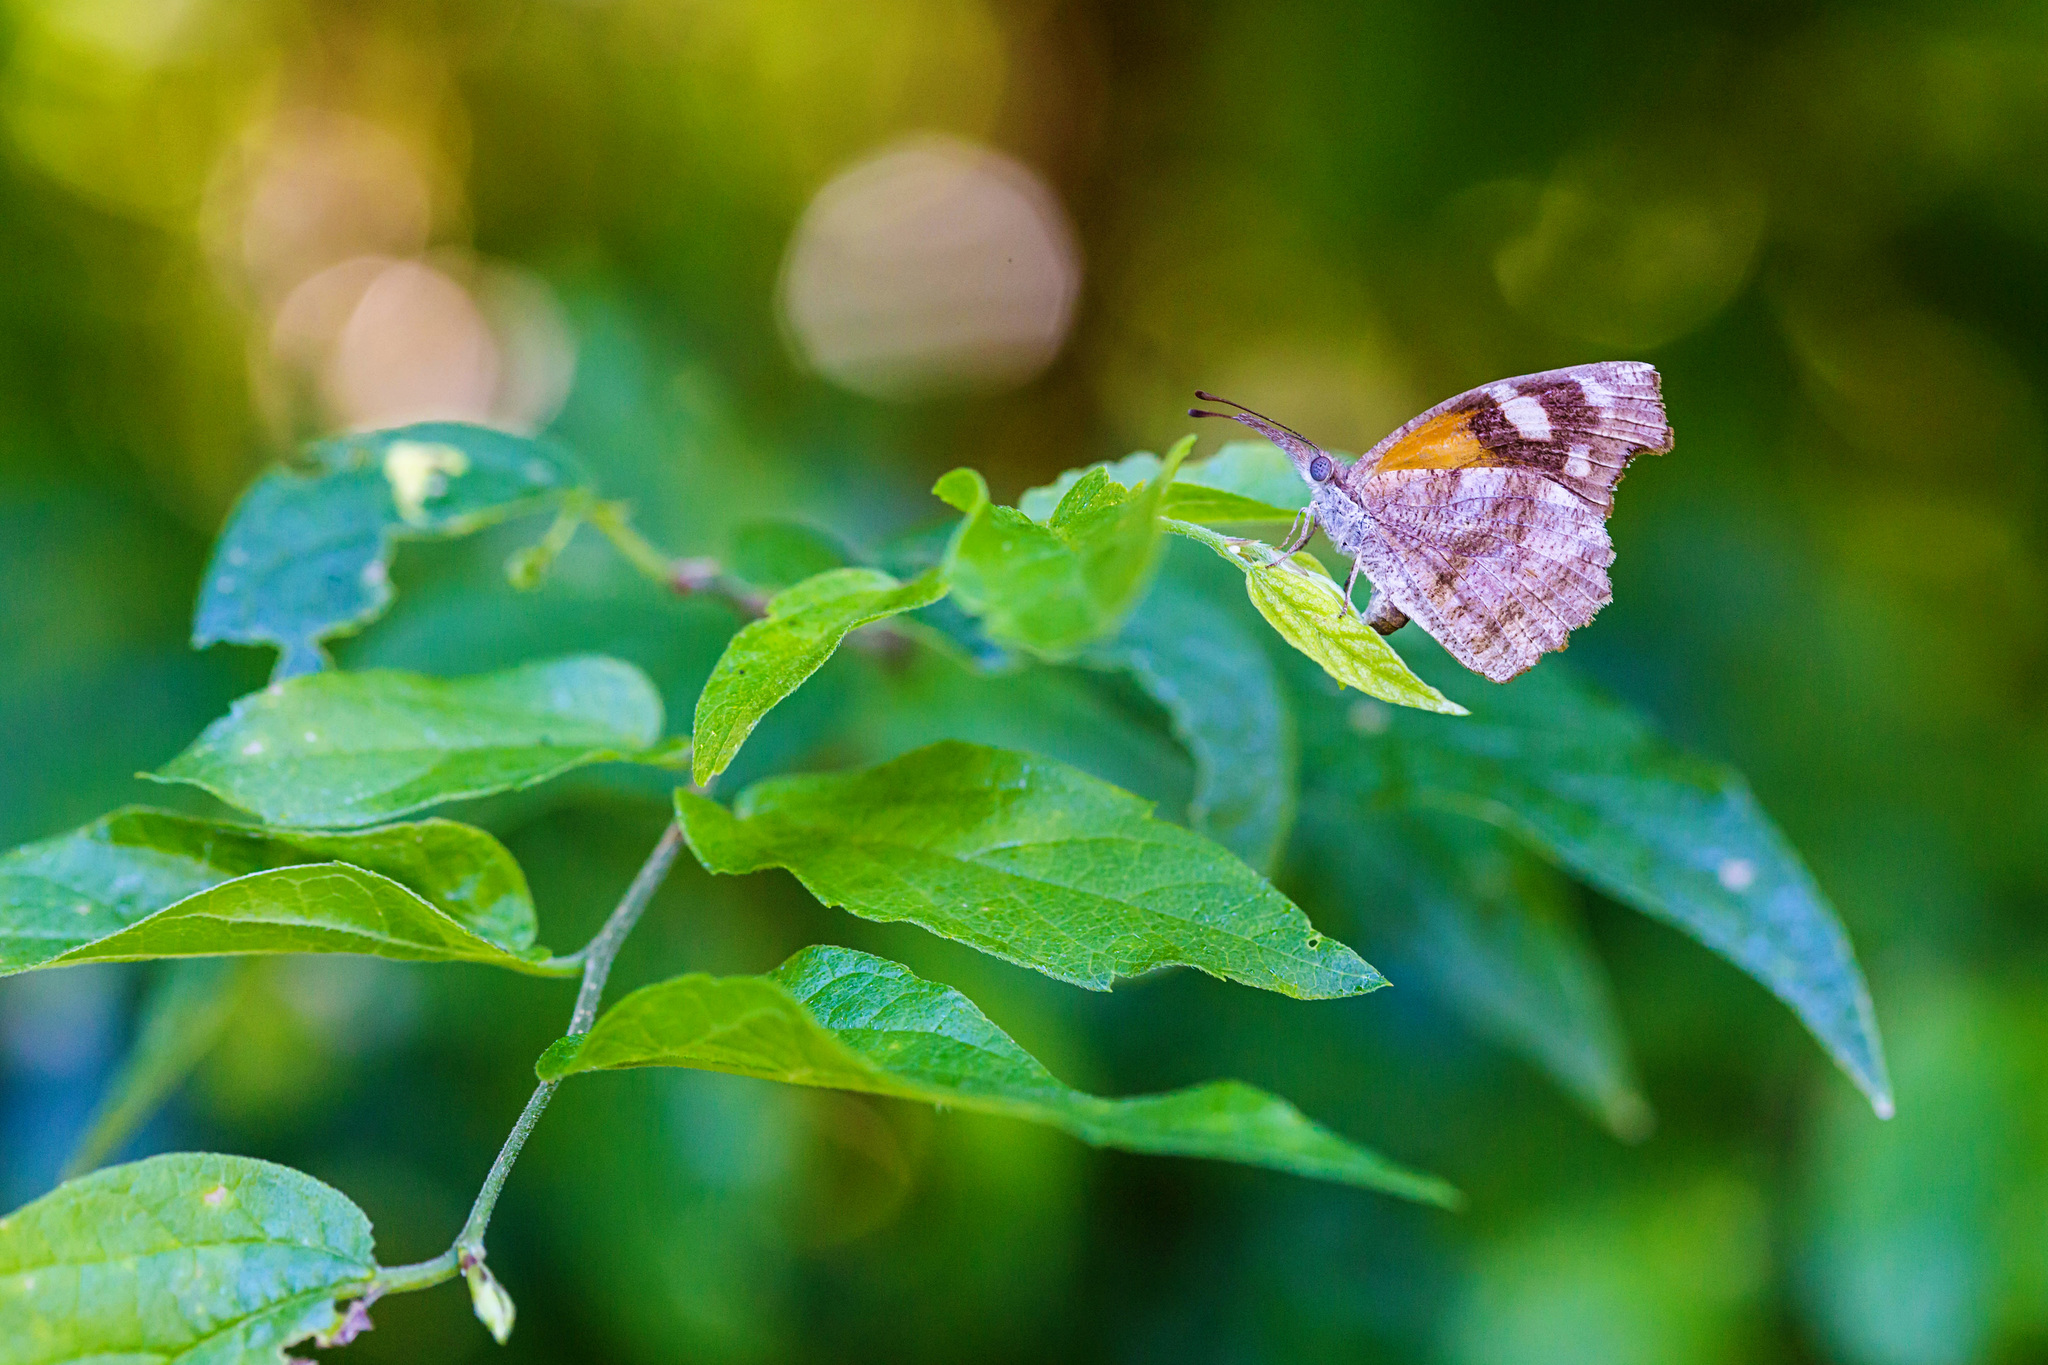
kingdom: Animalia
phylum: Arthropoda
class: Insecta
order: Lepidoptera
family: Nymphalidae
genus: Libytheana
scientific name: Libytheana carinenta
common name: American snout
